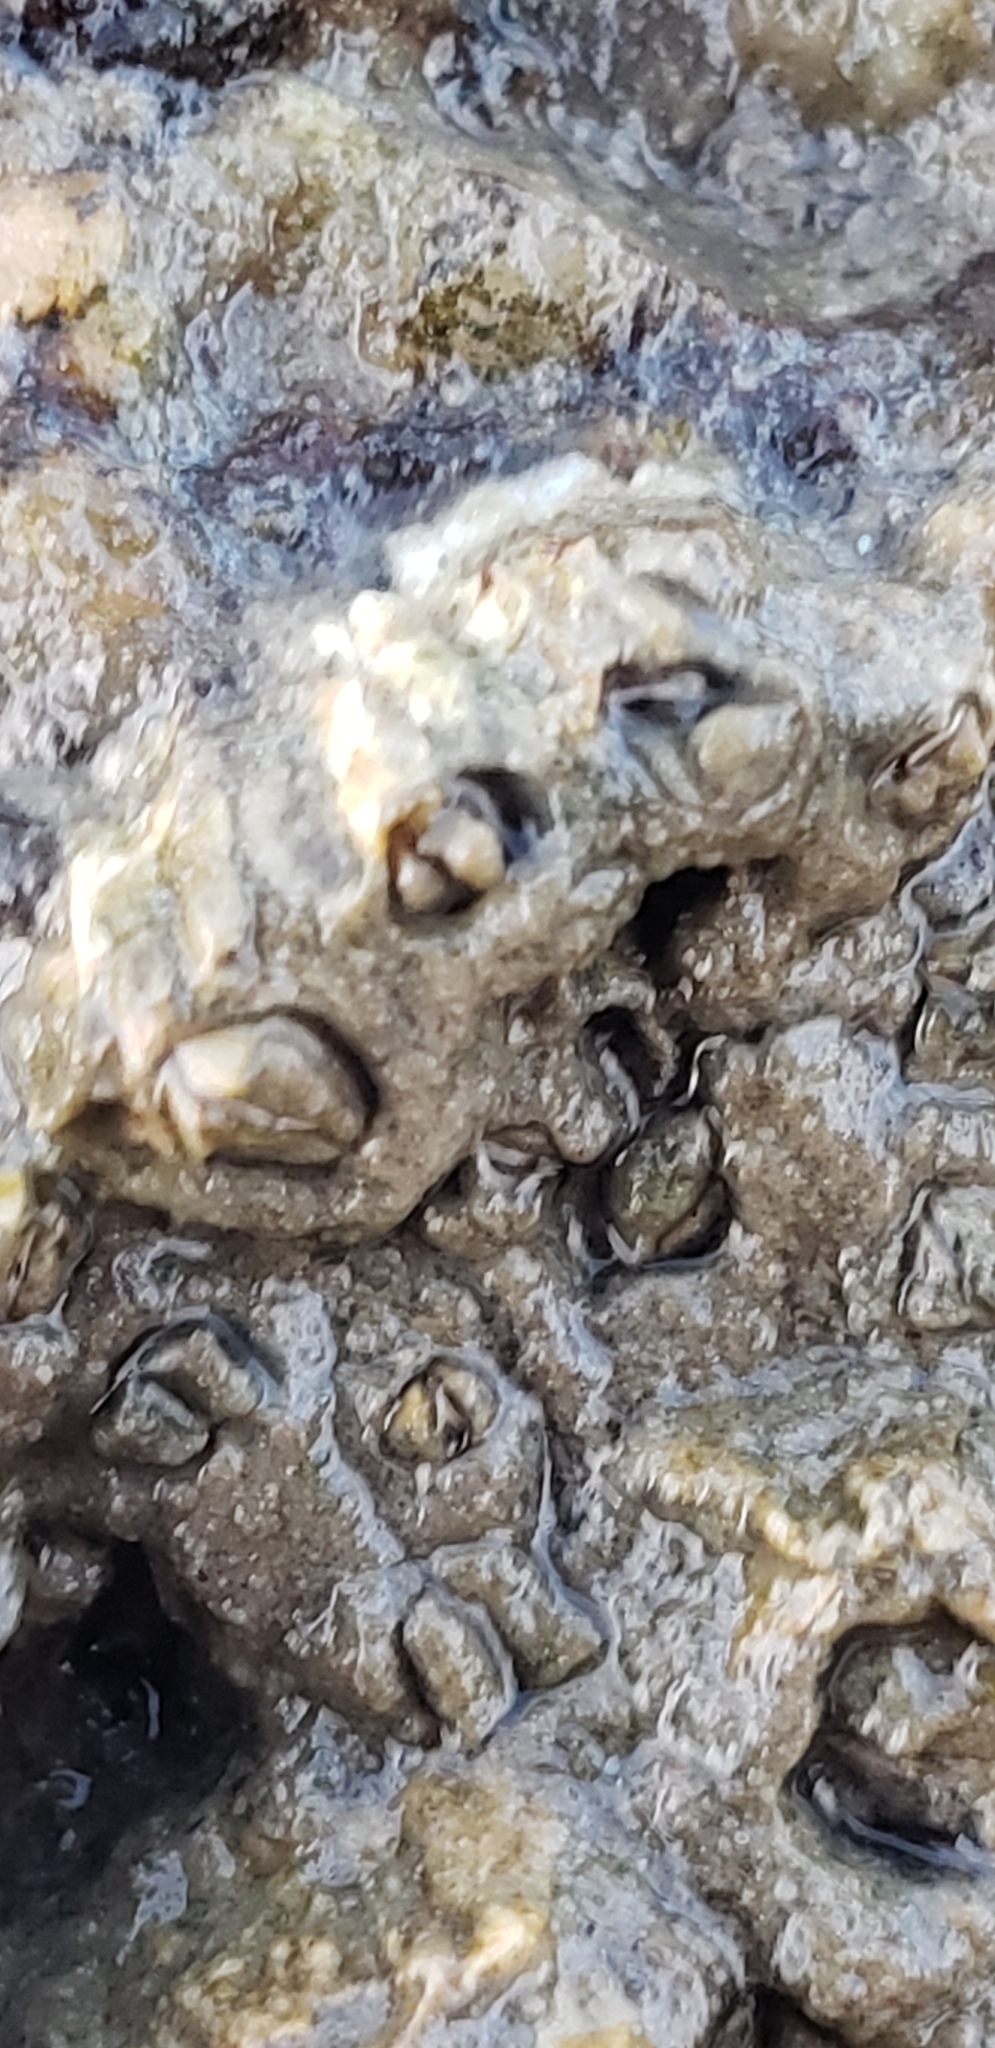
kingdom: Animalia
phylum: Arthropoda
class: Maxillopoda
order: Sessilia
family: Archaeobalanidae
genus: Semibalanus
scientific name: Semibalanus balanoides
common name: Acorn barnacle
